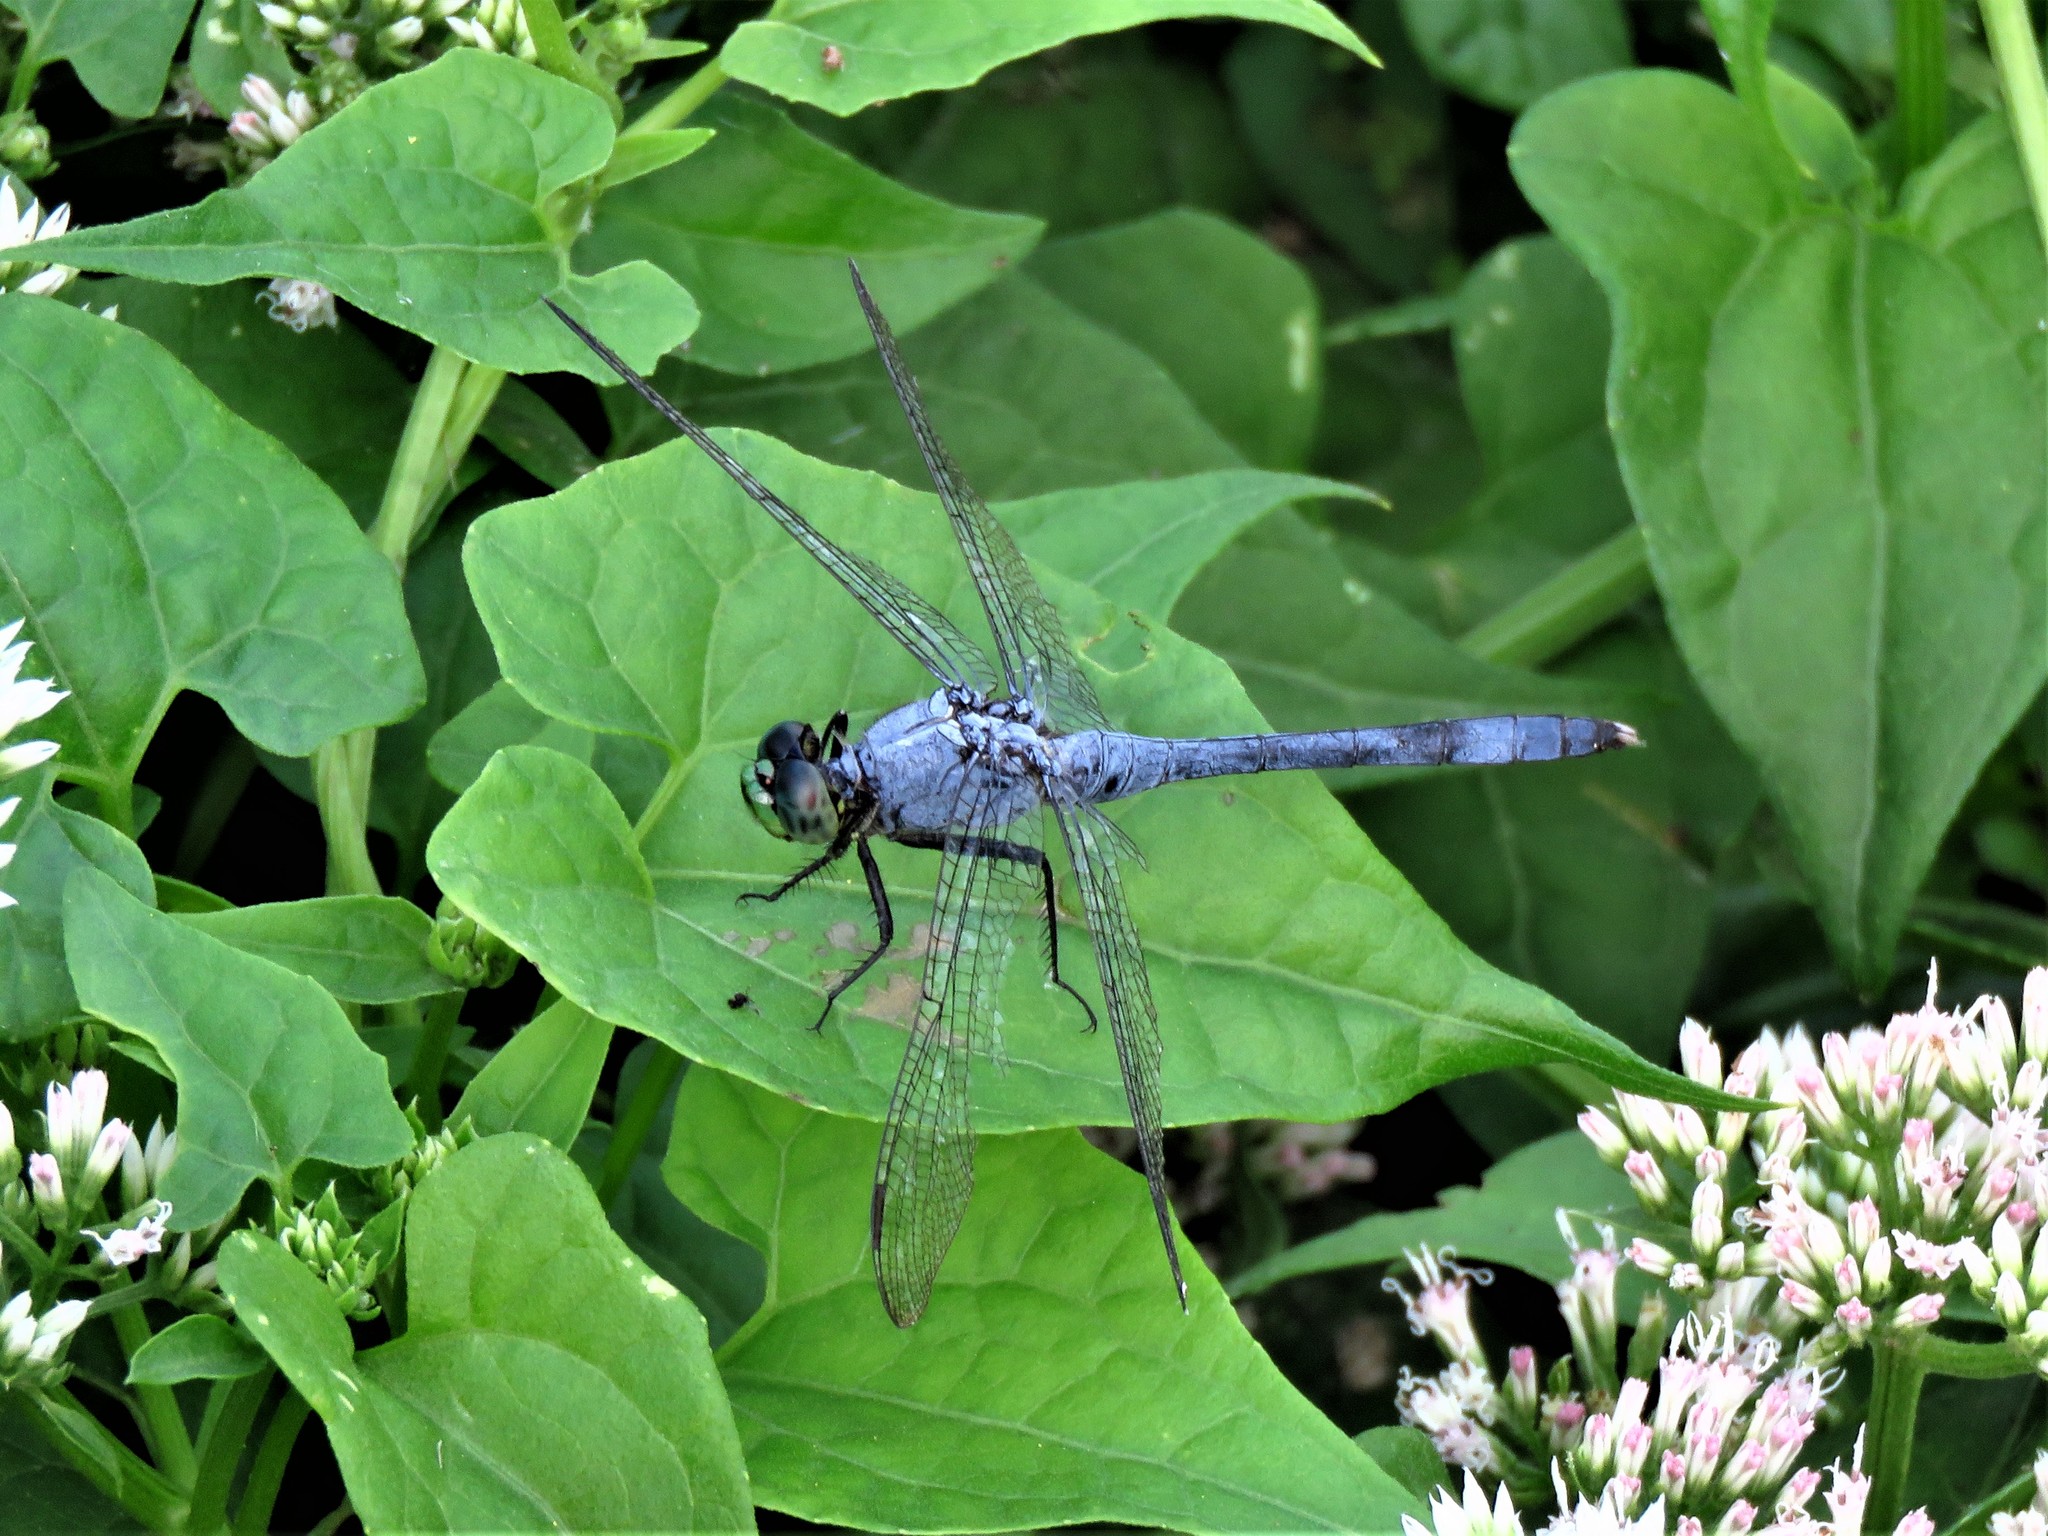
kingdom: Animalia
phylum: Arthropoda
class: Insecta
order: Odonata
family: Libellulidae
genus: Erythemis
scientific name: Erythemis simplicicollis
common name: Eastern pondhawk
